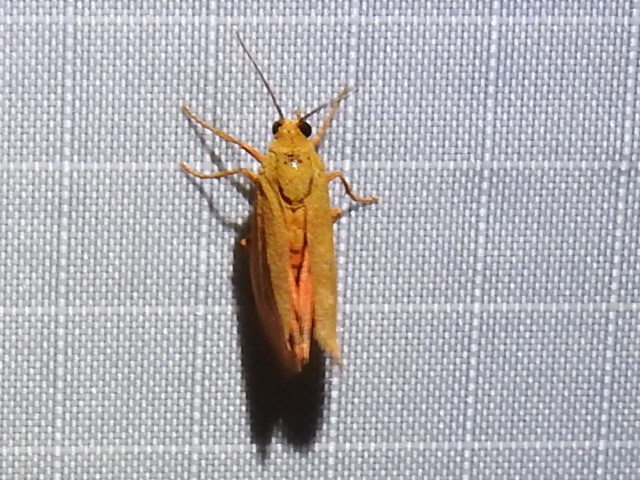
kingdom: Animalia
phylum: Arthropoda
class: Insecta
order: Lepidoptera
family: Erebidae
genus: Virbia
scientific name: Virbia aurantiaca
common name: Orange virbia moth
